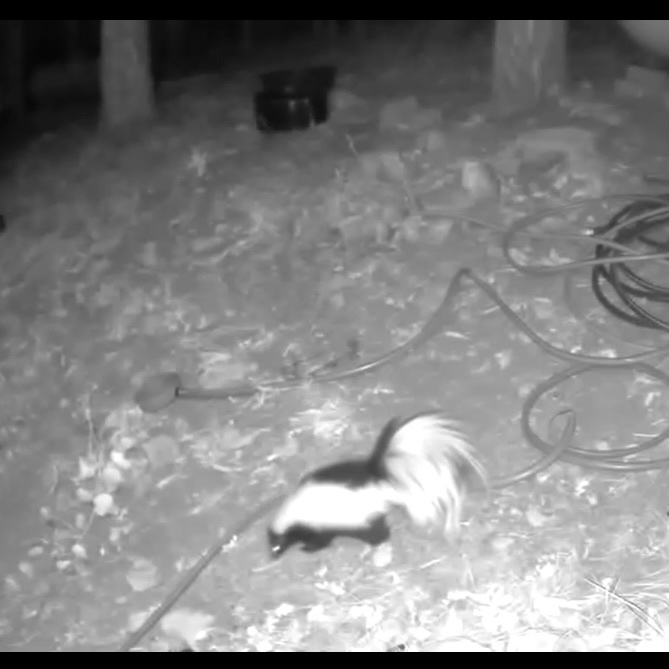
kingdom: Animalia
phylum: Chordata
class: Mammalia
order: Carnivora
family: Mephitidae
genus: Mephitis
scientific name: Mephitis mephitis
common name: Striped skunk
